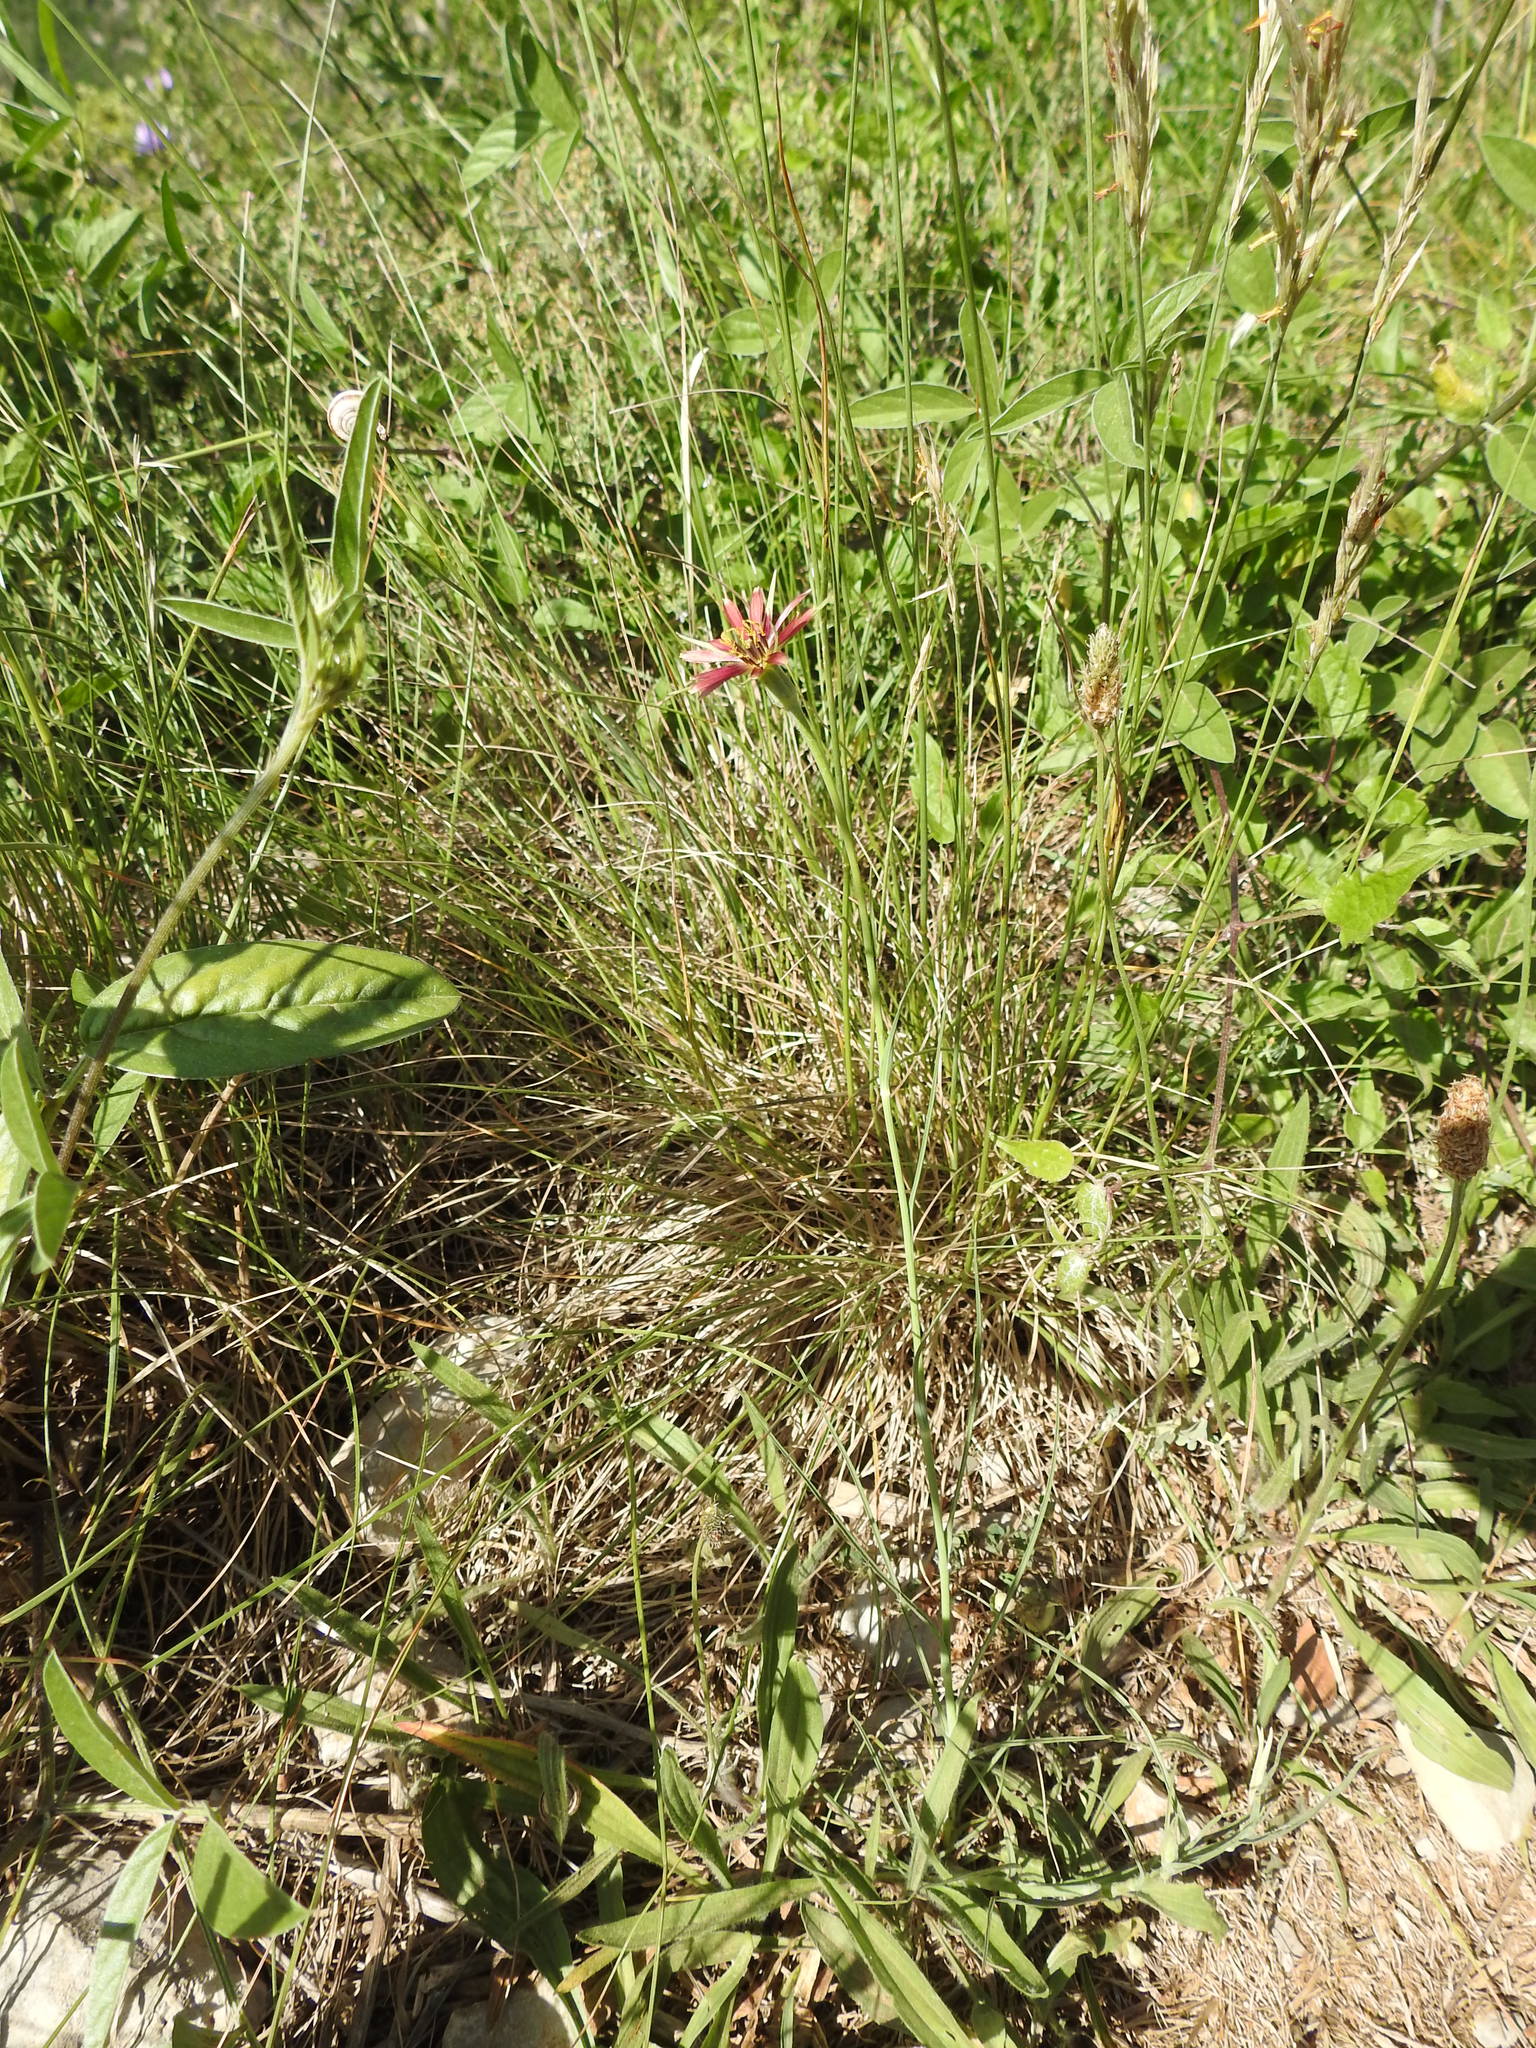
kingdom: Plantae
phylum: Tracheophyta
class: Magnoliopsida
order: Asterales
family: Asteraceae
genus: Tragopogon
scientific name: Tragopogon crocifolius
